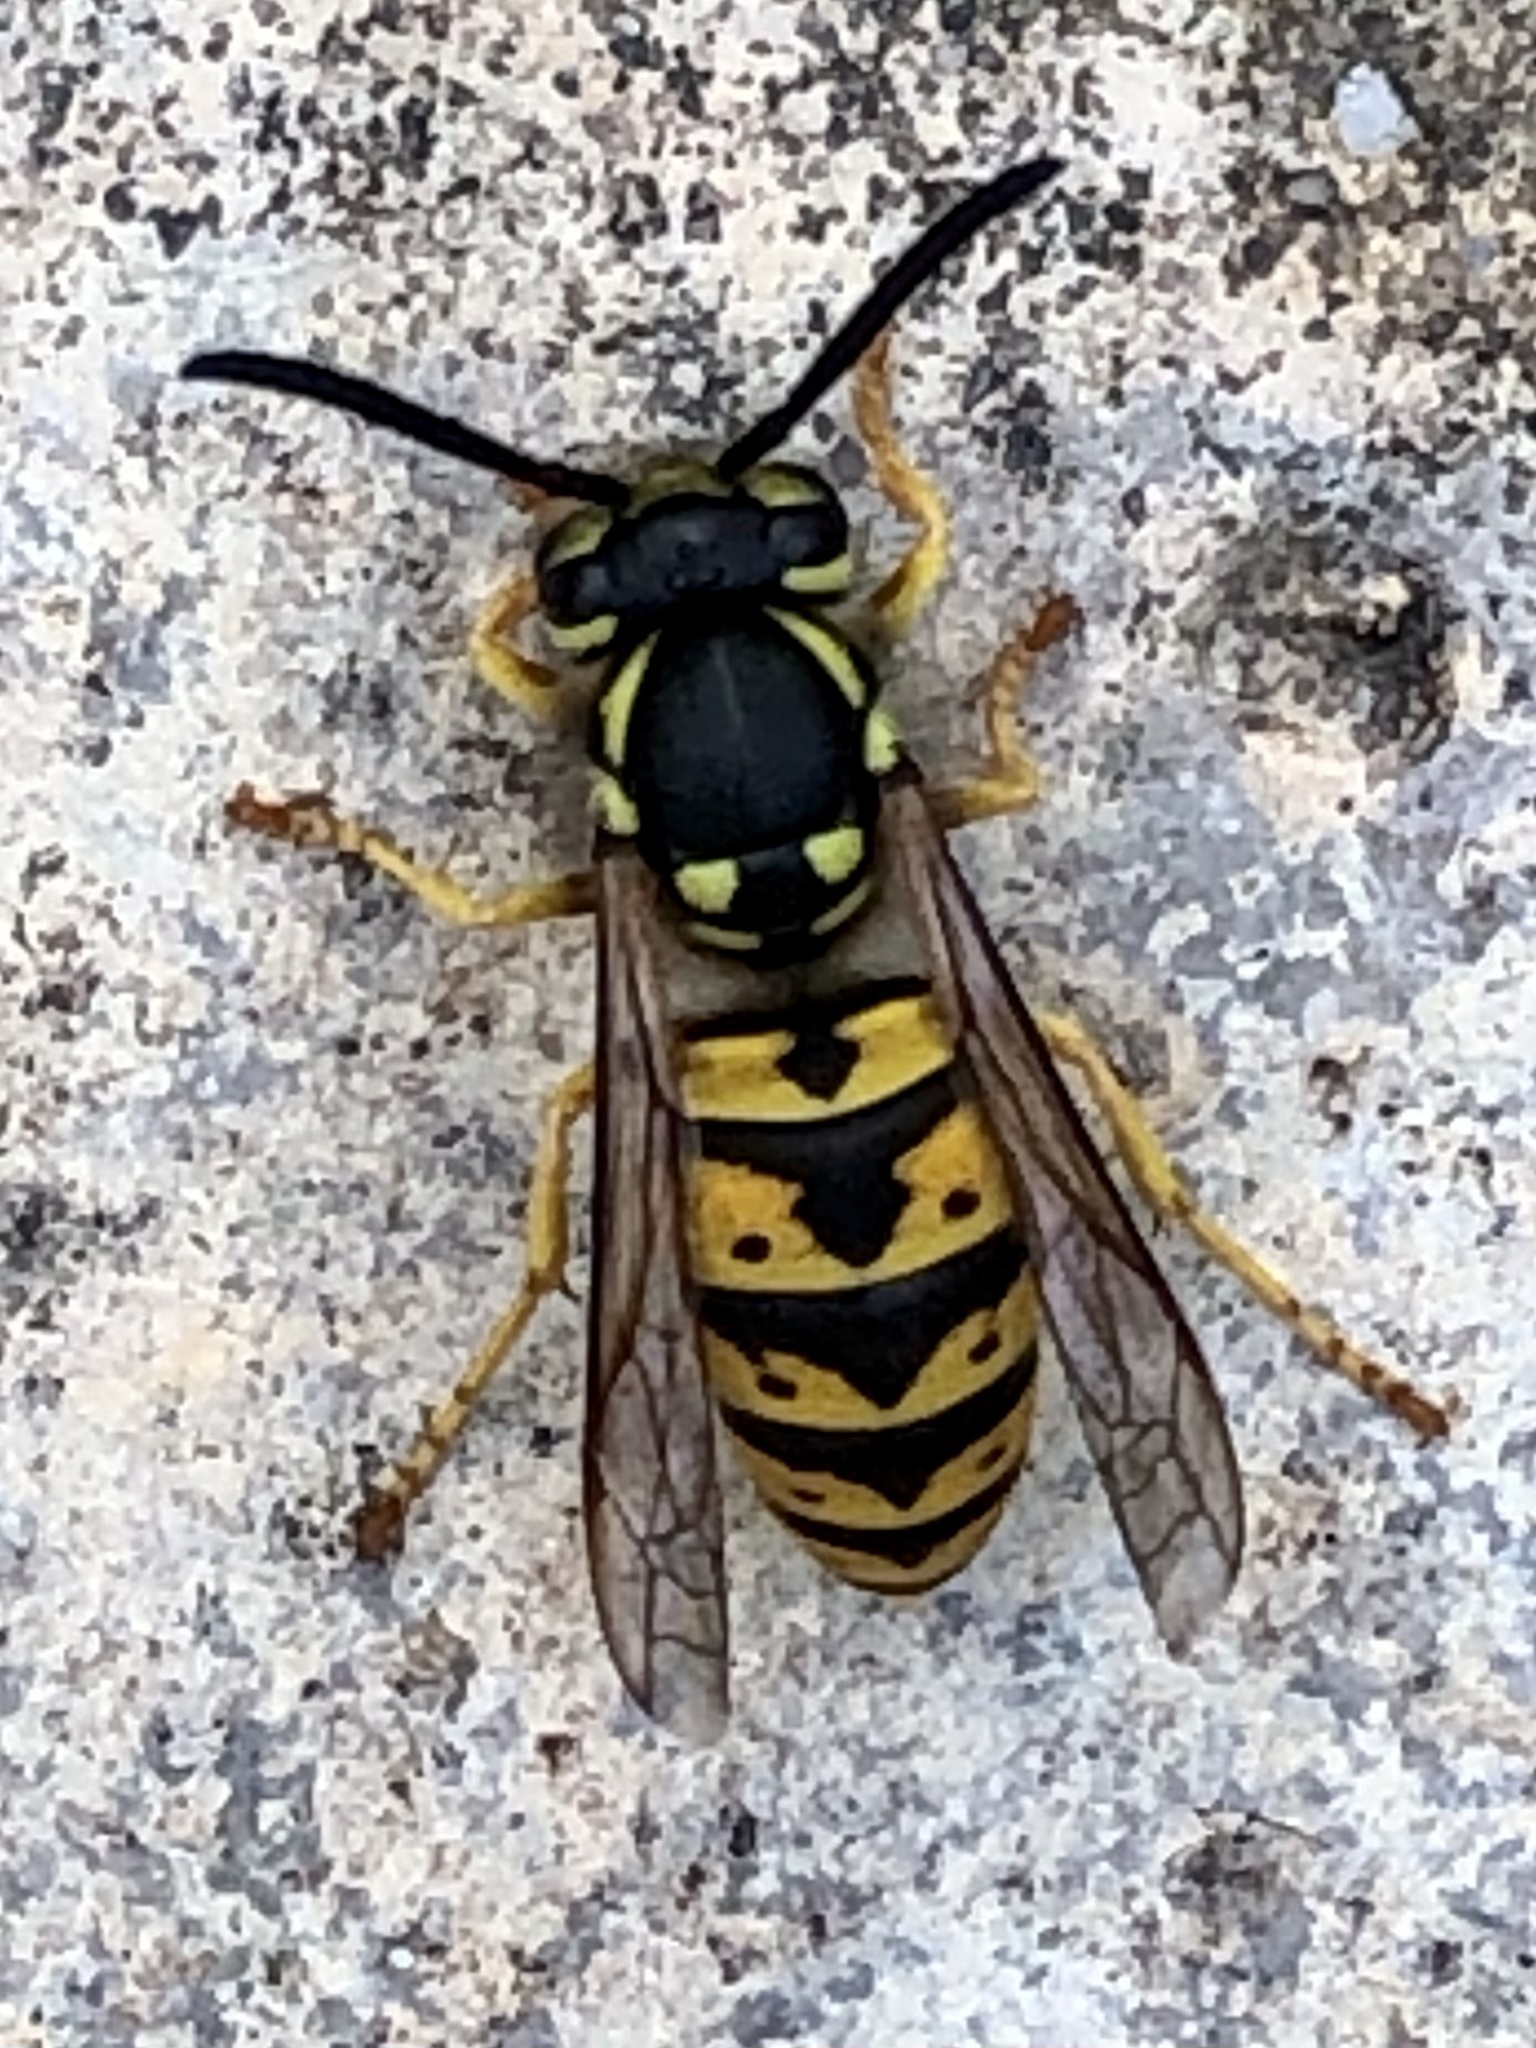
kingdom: Animalia
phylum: Arthropoda
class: Insecta
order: Hymenoptera
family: Vespidae
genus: Vespula
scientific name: Vespula germanica
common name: German wasp
